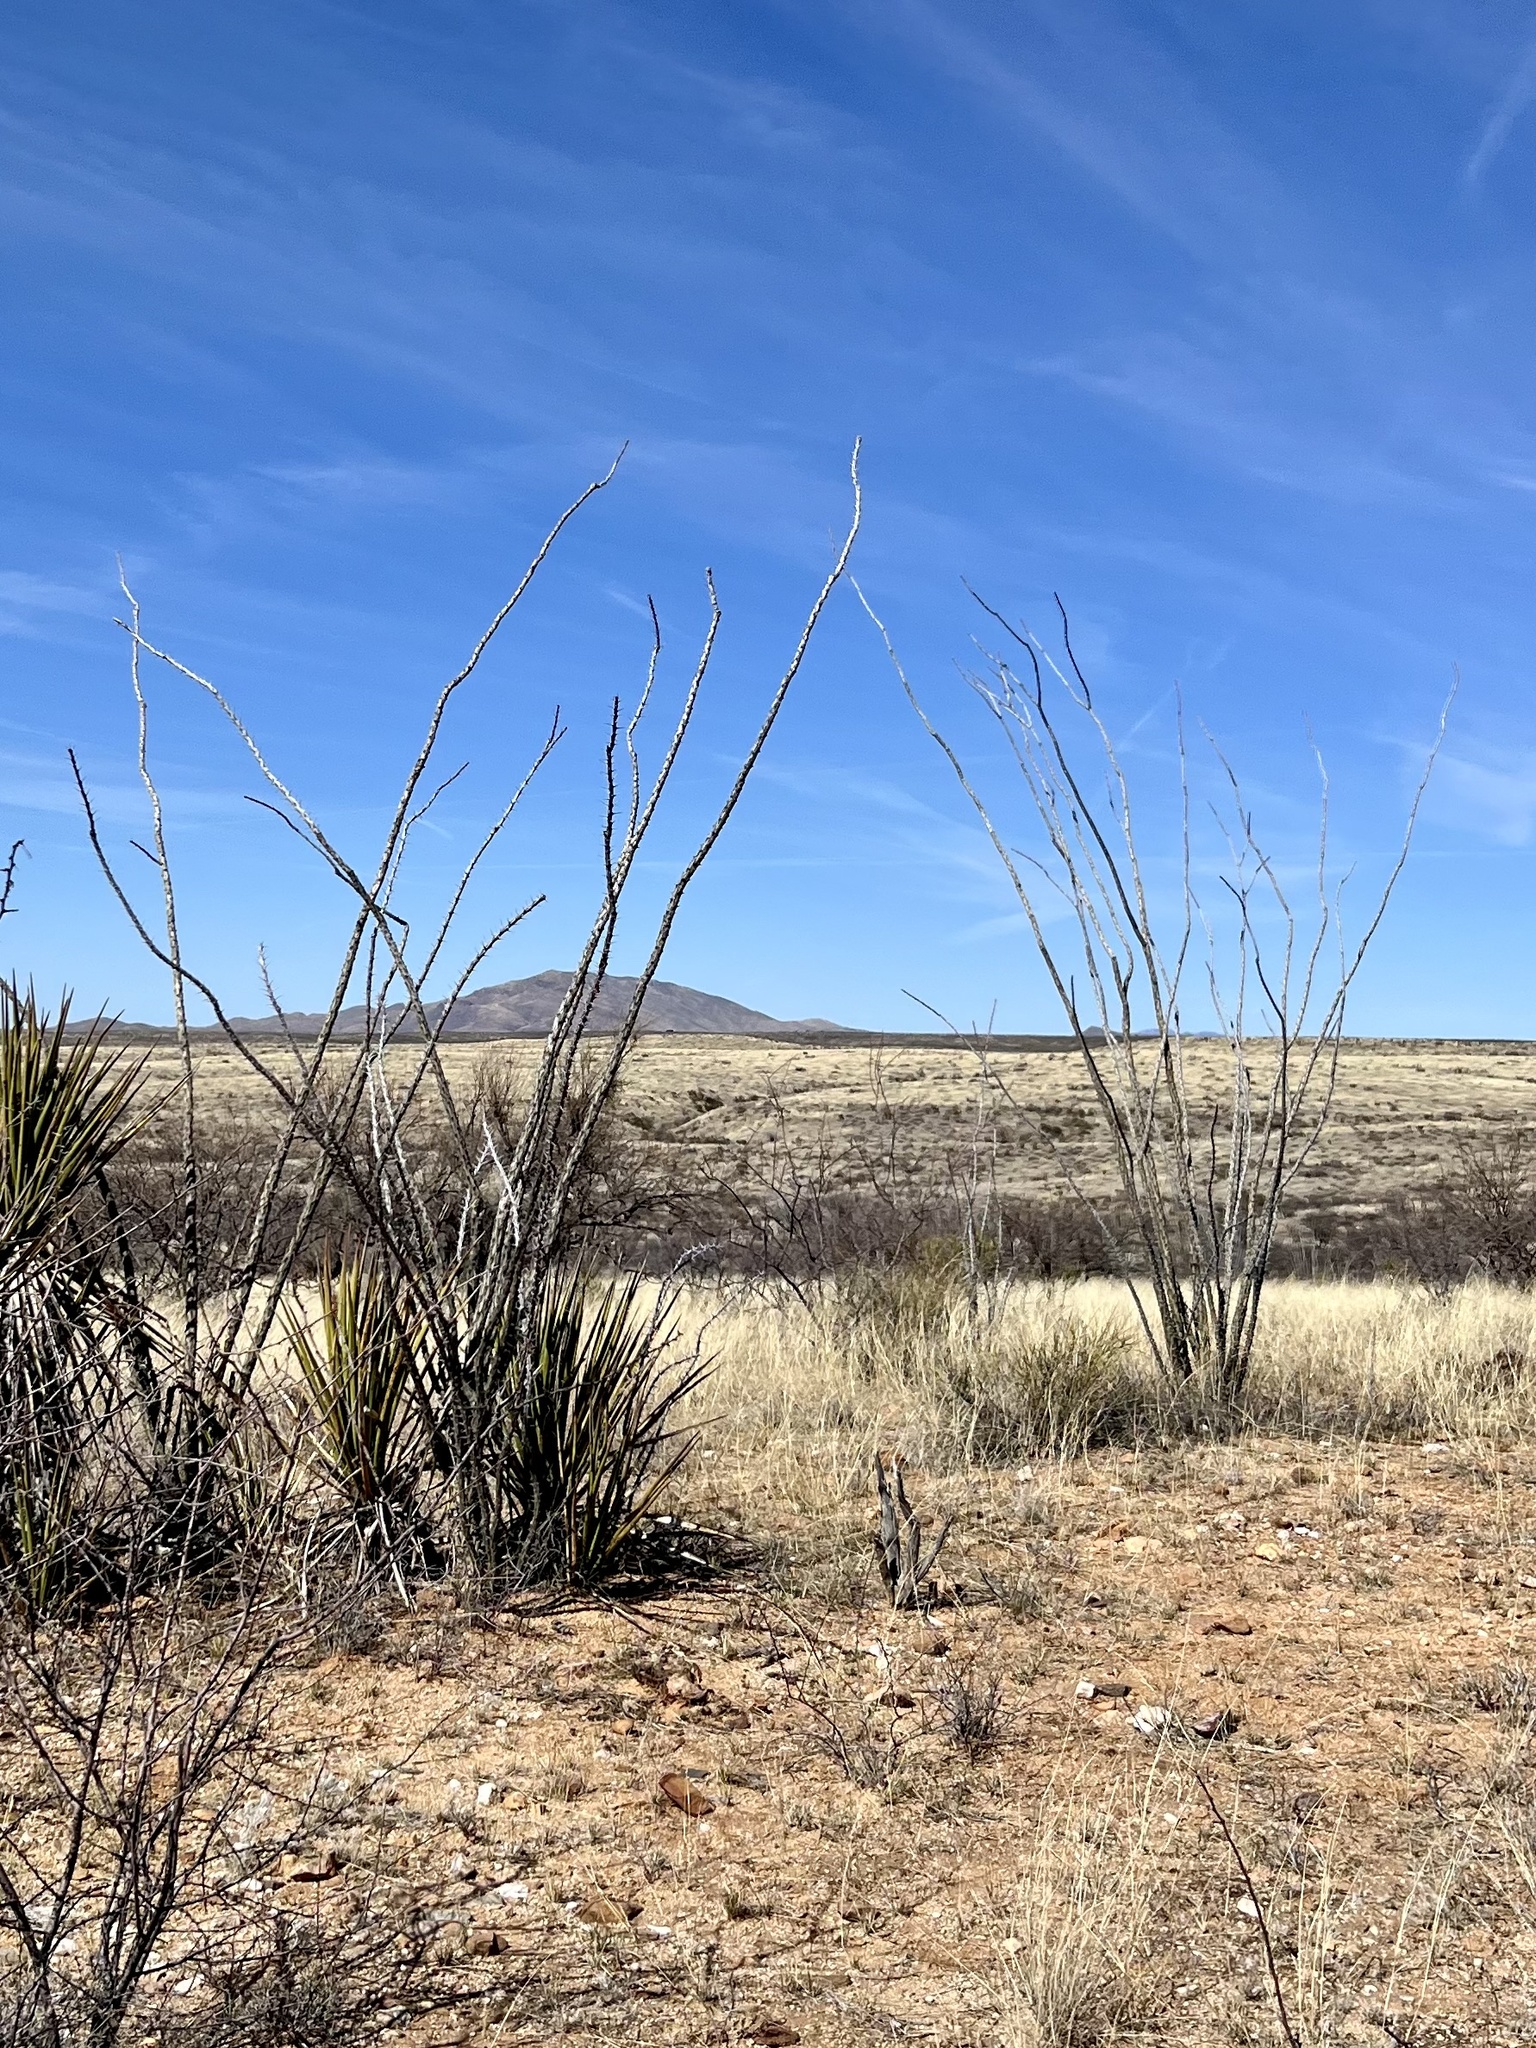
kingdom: Plantae
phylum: Tracheophyta
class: Magnoliopsida
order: Ericales
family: Fouquieriaceae
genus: Fouquieria
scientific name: Fouquieria splendens
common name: Vine-cactus
